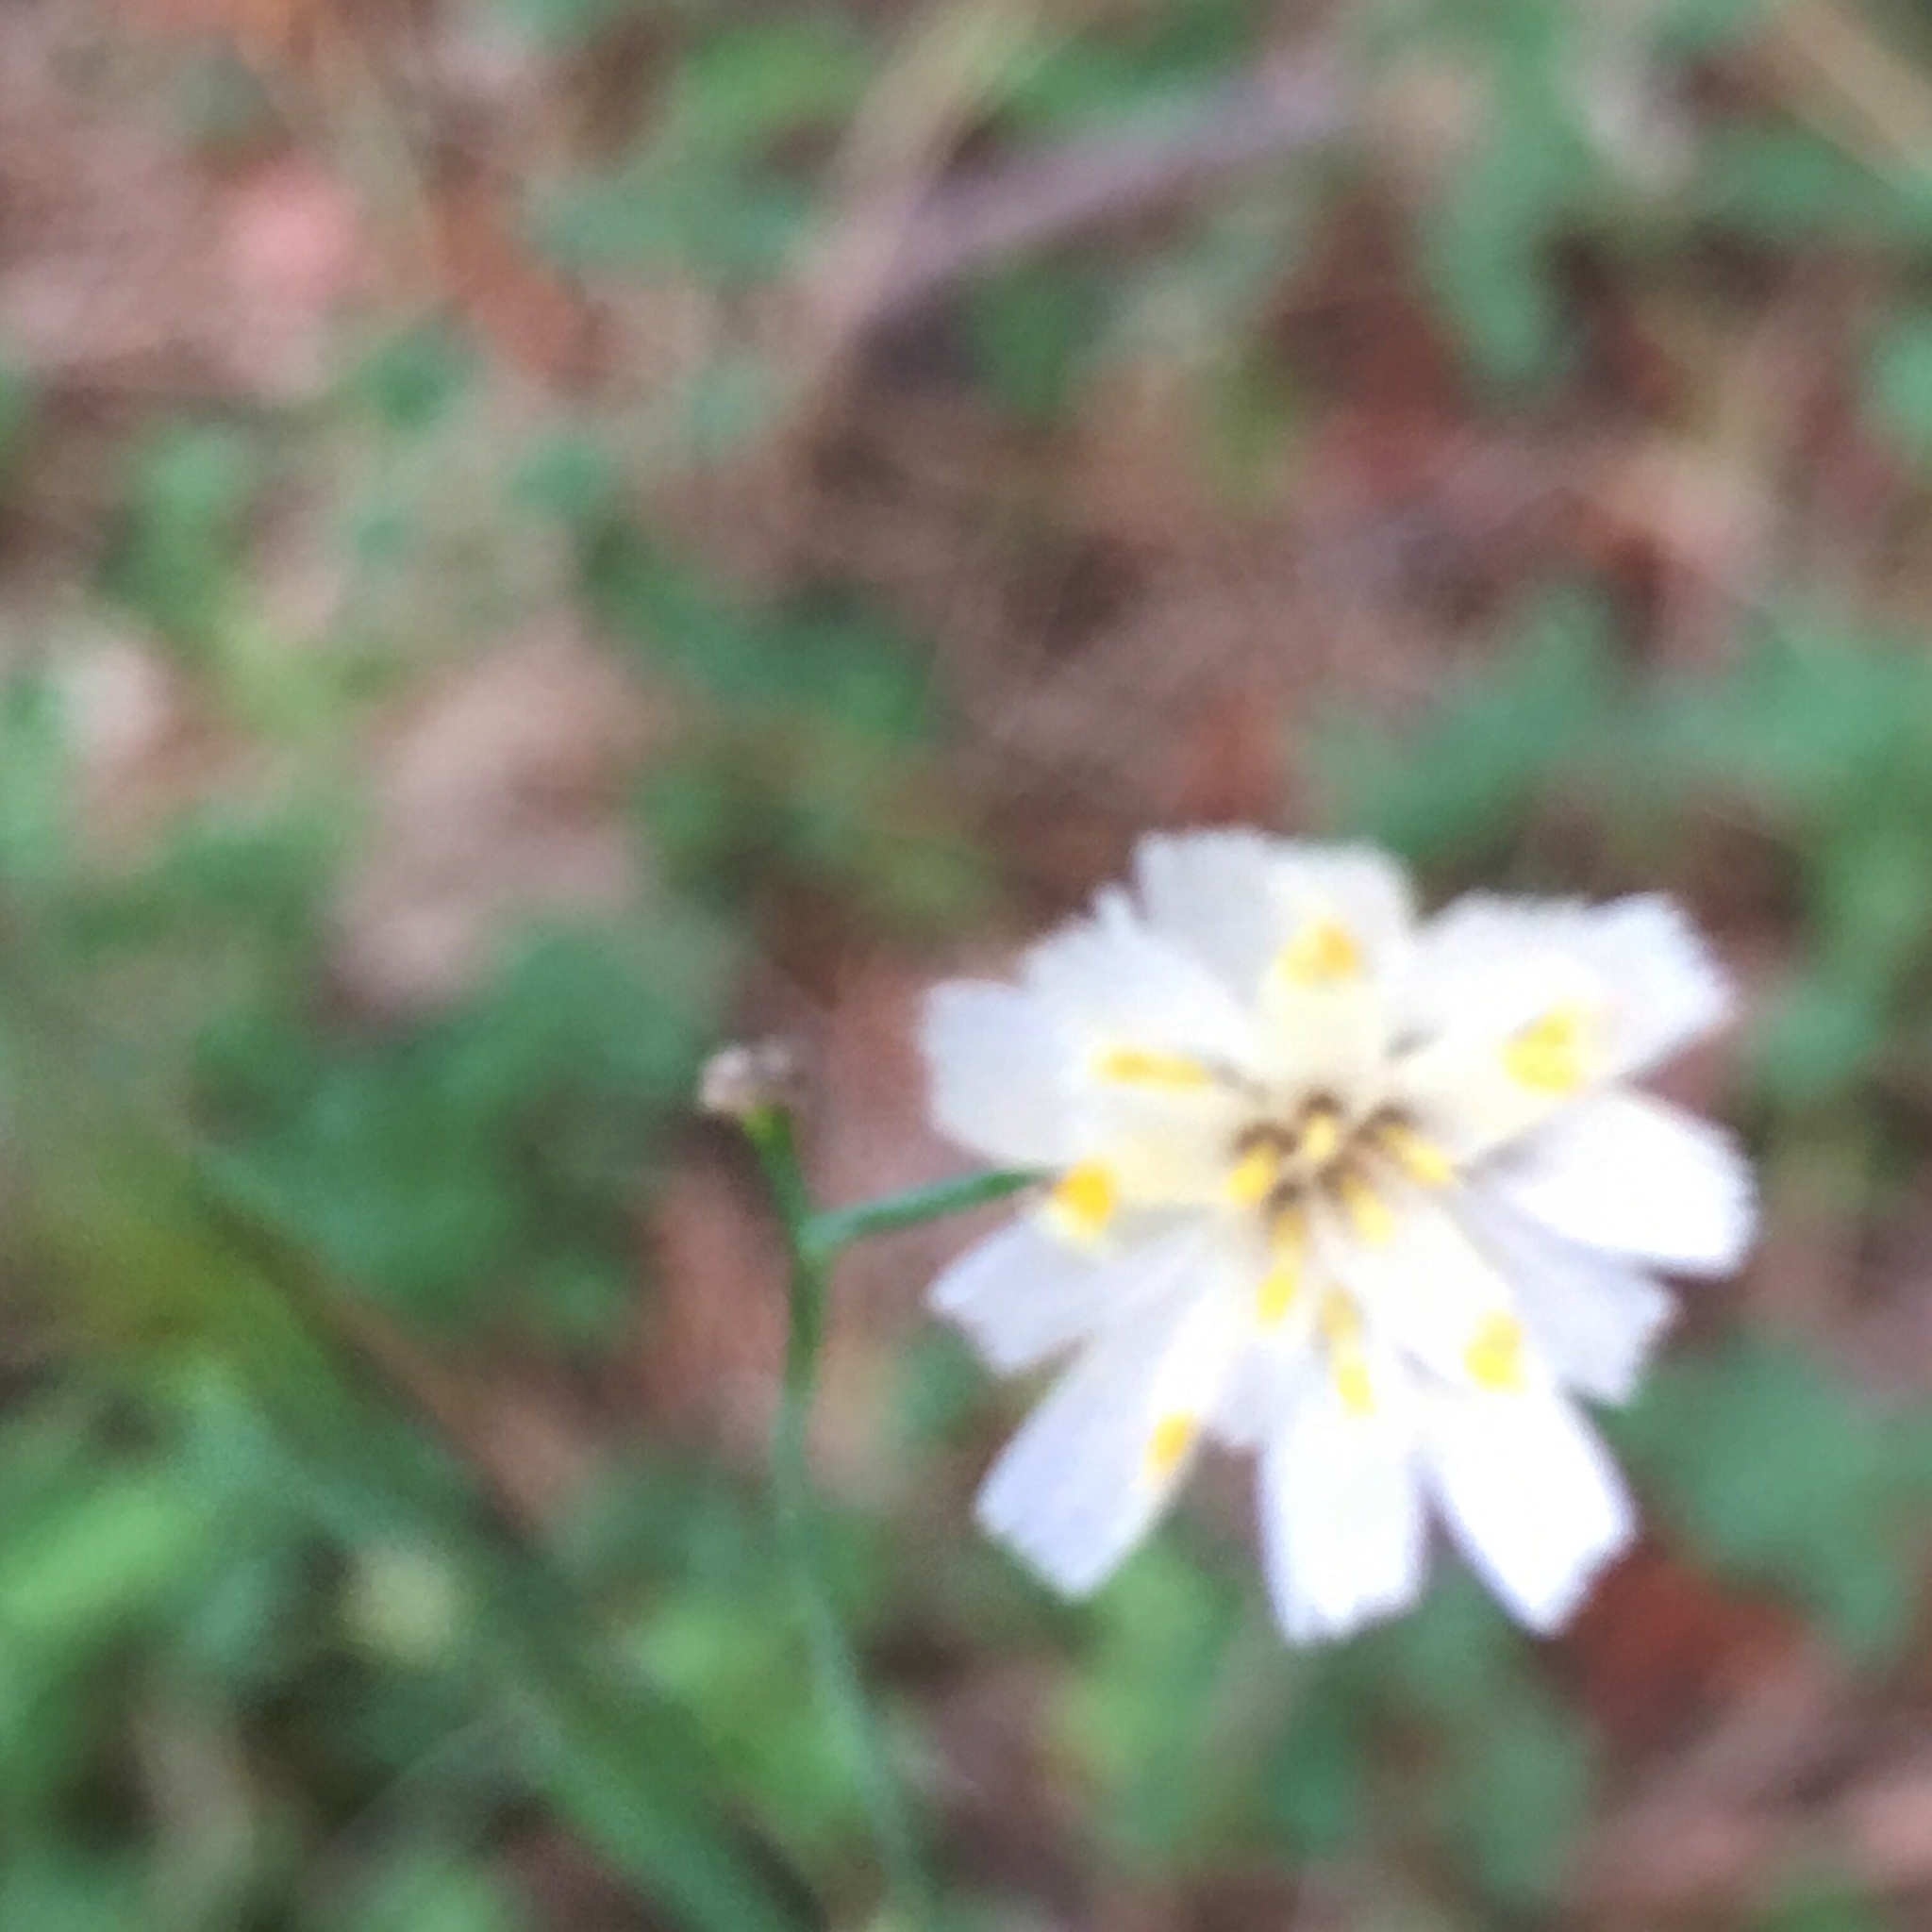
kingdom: Plantae
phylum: Tracheophyta
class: Magnoliopsida
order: Asterales
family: Asteraceae
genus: Hieracium
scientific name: Hieracium albiflorum
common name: White hawkweed
